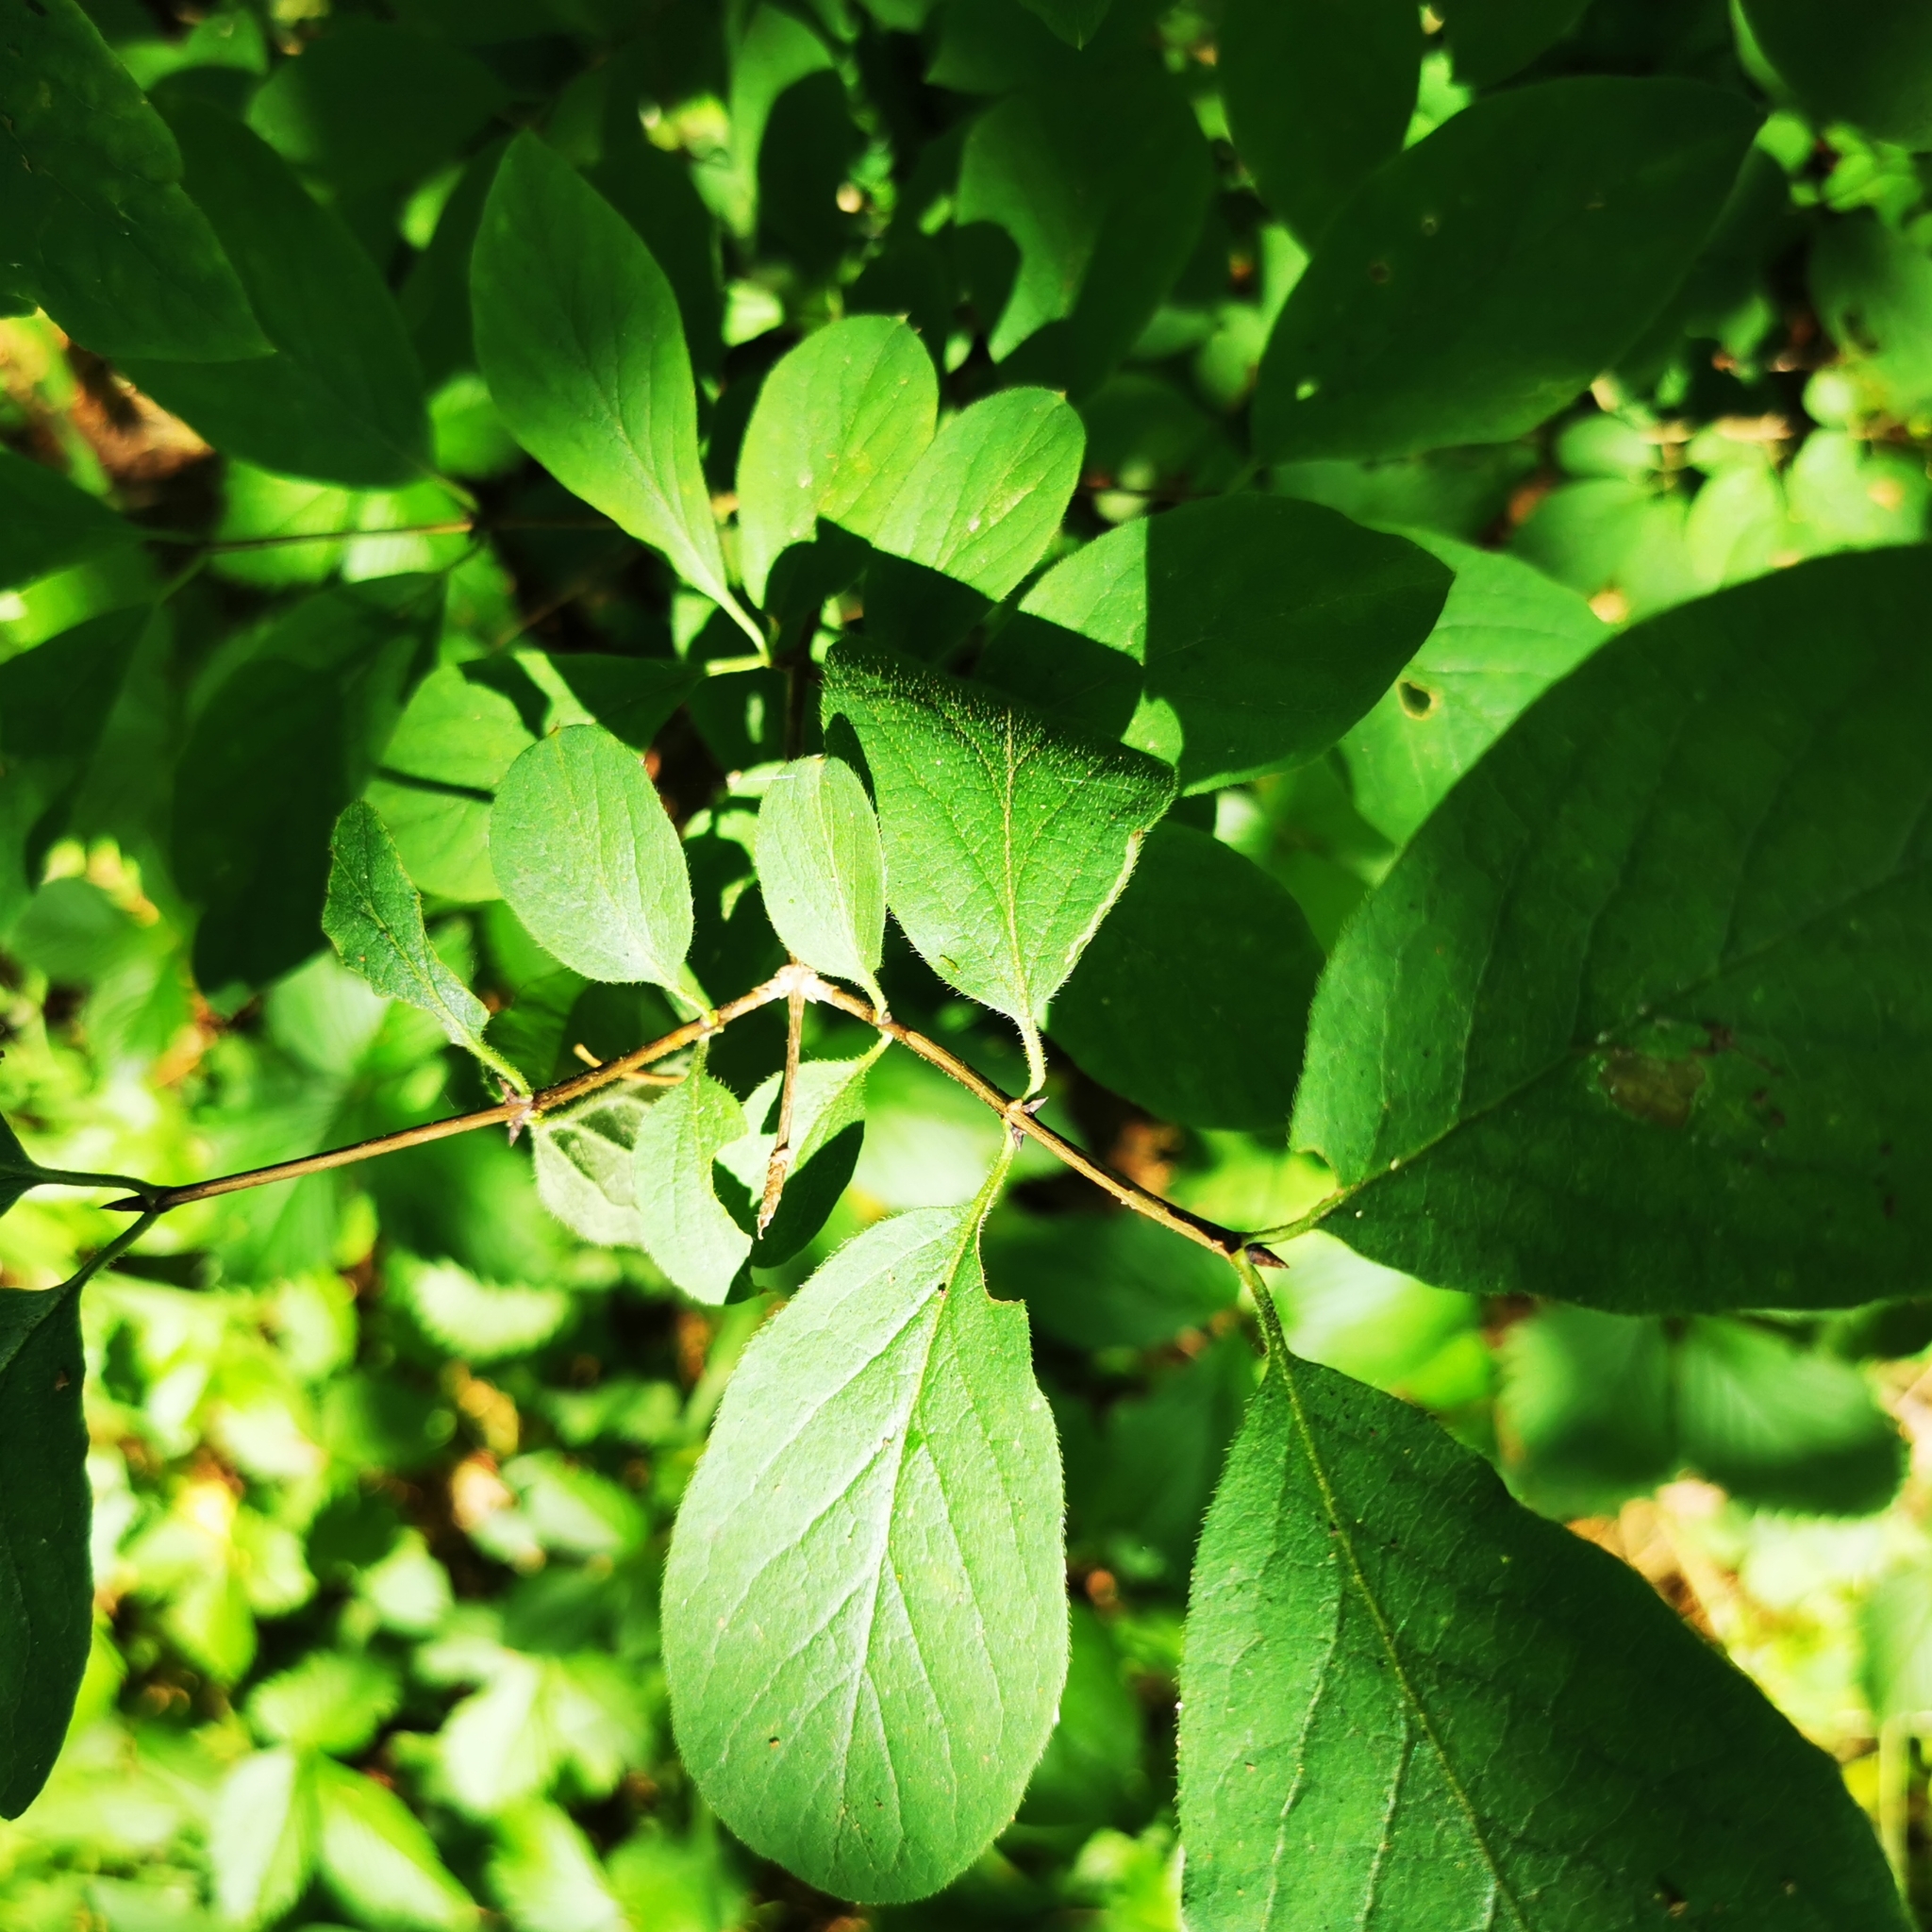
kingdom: Plantae
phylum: Tracheophyta
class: Magnoliopsida
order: Dipsacales
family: Caprifoliaceae
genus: Lonicera
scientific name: Lonicera xylosteum
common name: Fly honeysuckle
